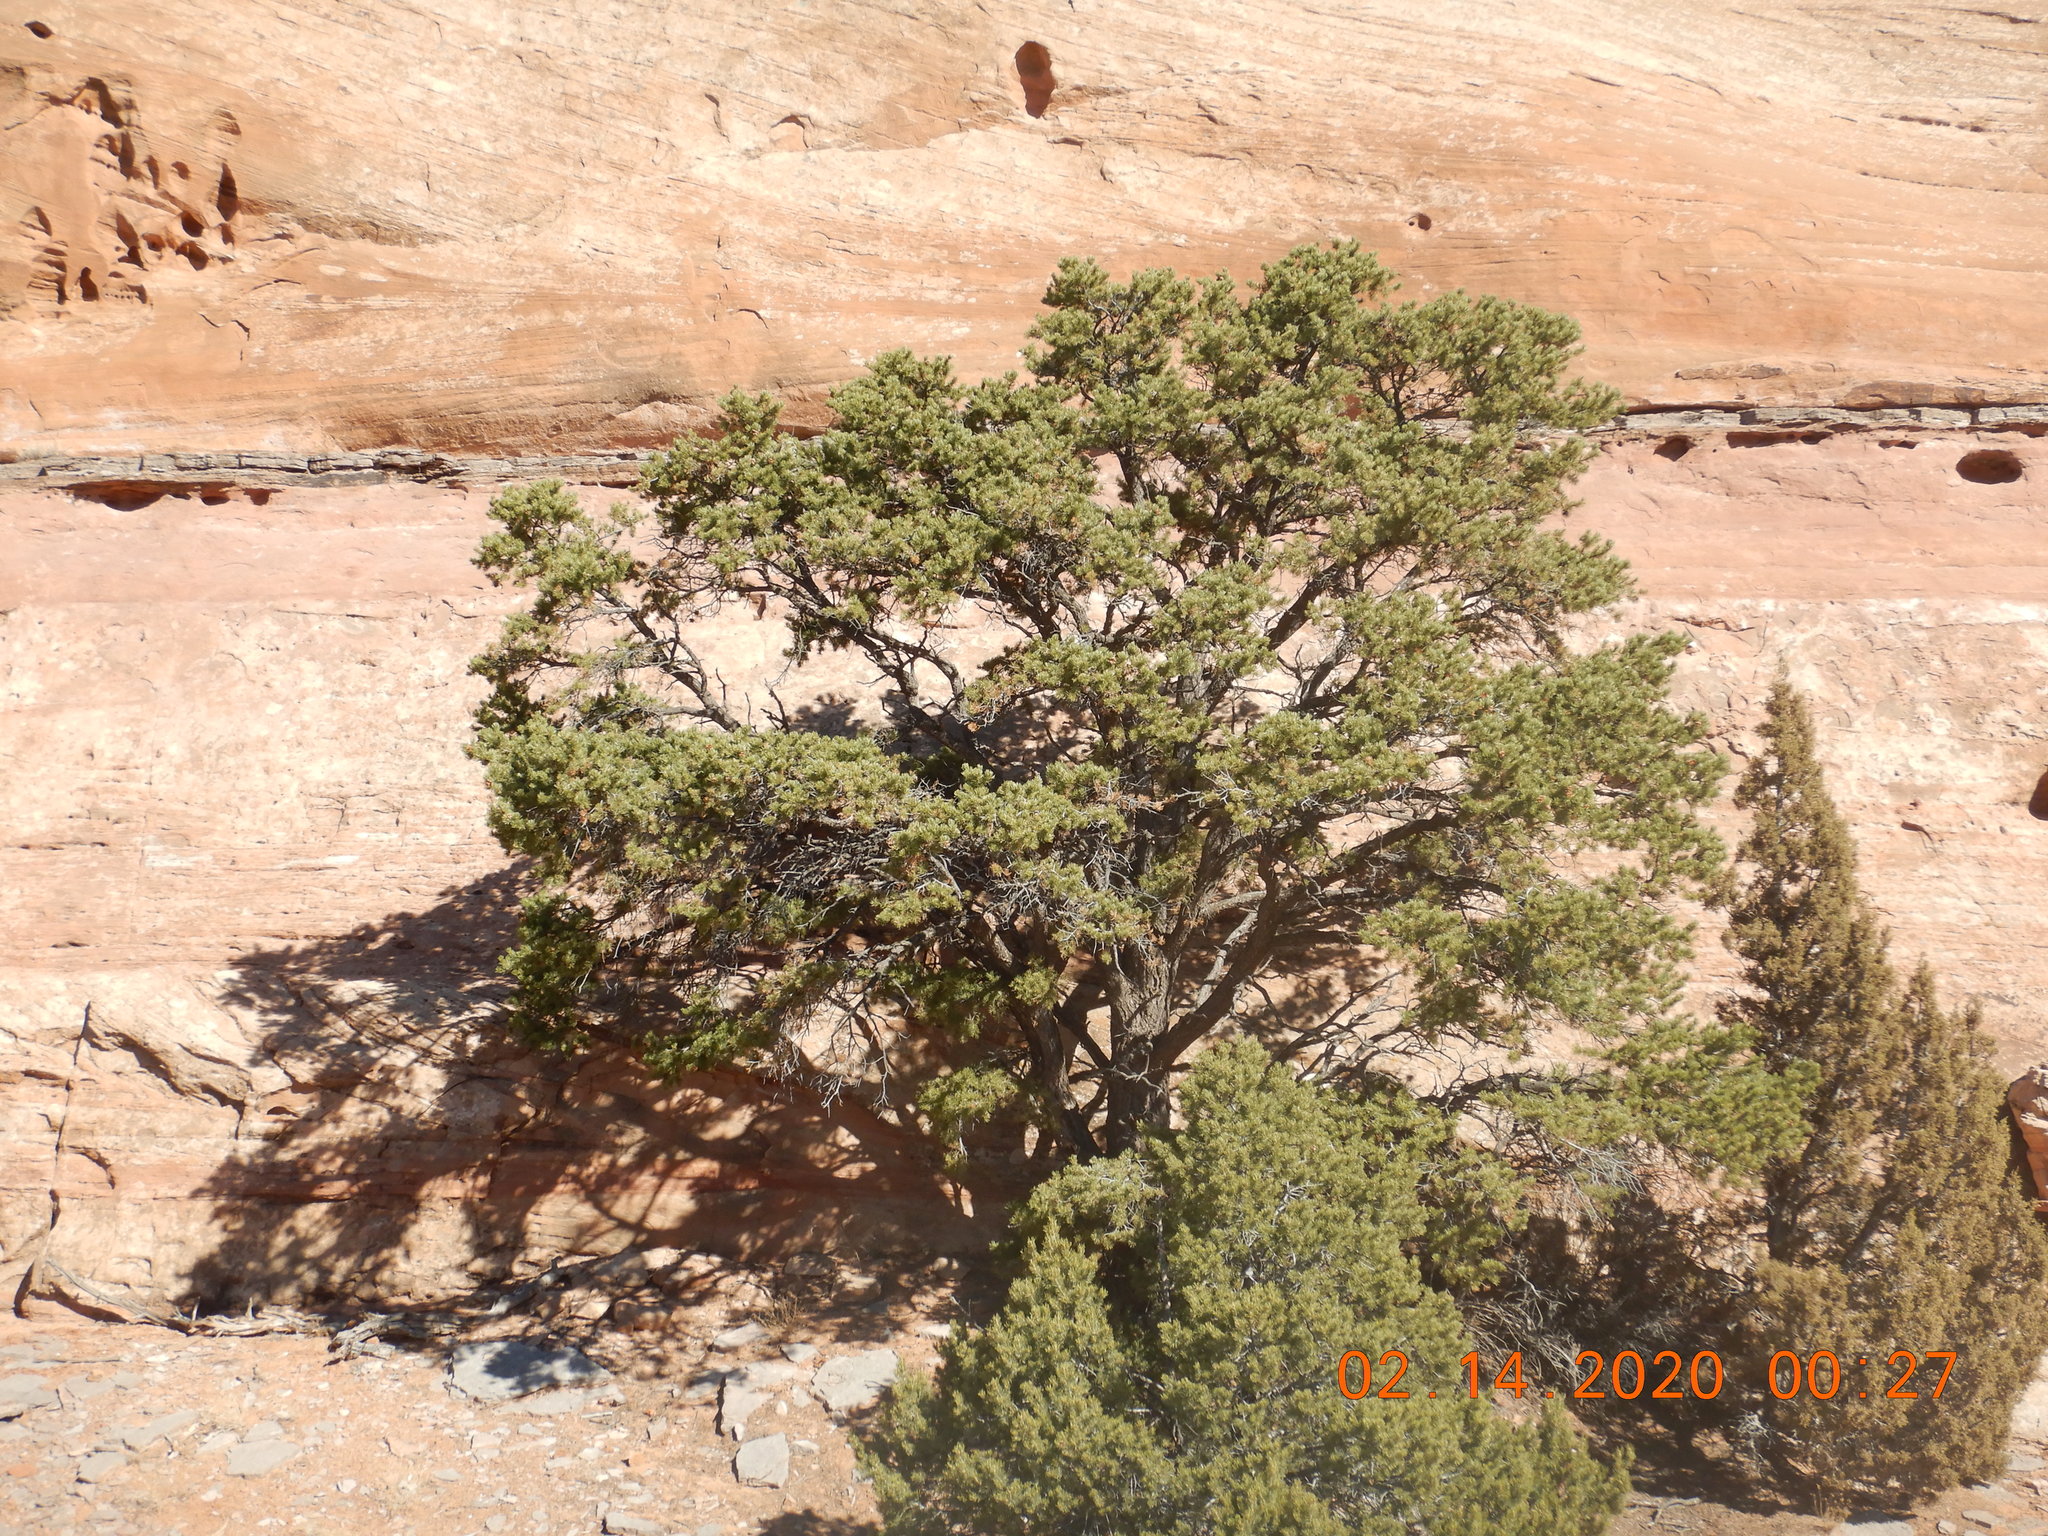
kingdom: Plantae
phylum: Tracheophyta
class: Pinopsida
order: Pinales
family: Pinaceae
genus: Pinus
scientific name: Pinus edulis
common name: Colorado pinyon
